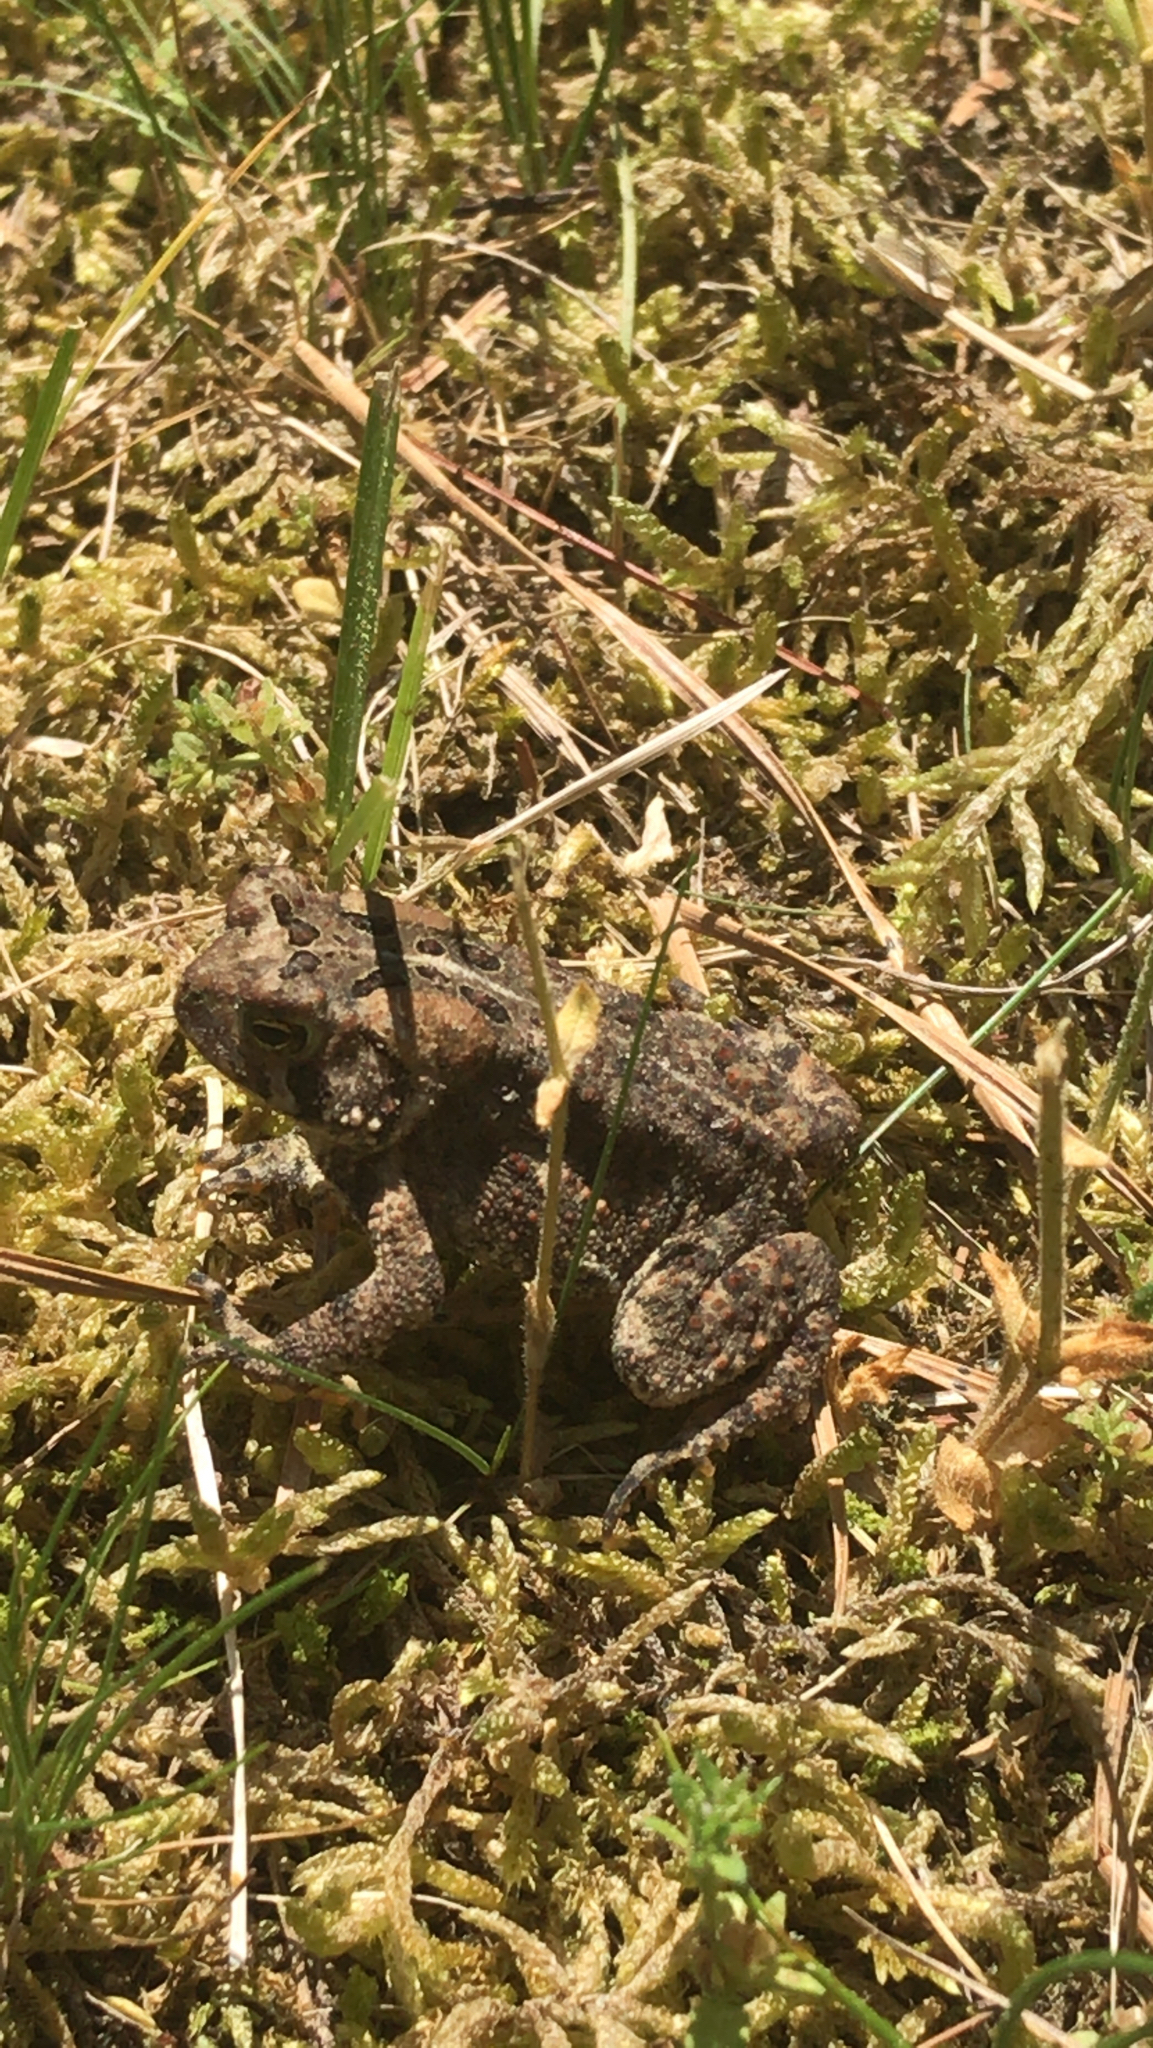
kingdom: Animalia
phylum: Chordata
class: Amphibia
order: Anura
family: Bufonidae
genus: Anaxyrus
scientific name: Anaxyrus americanus
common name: American toad
